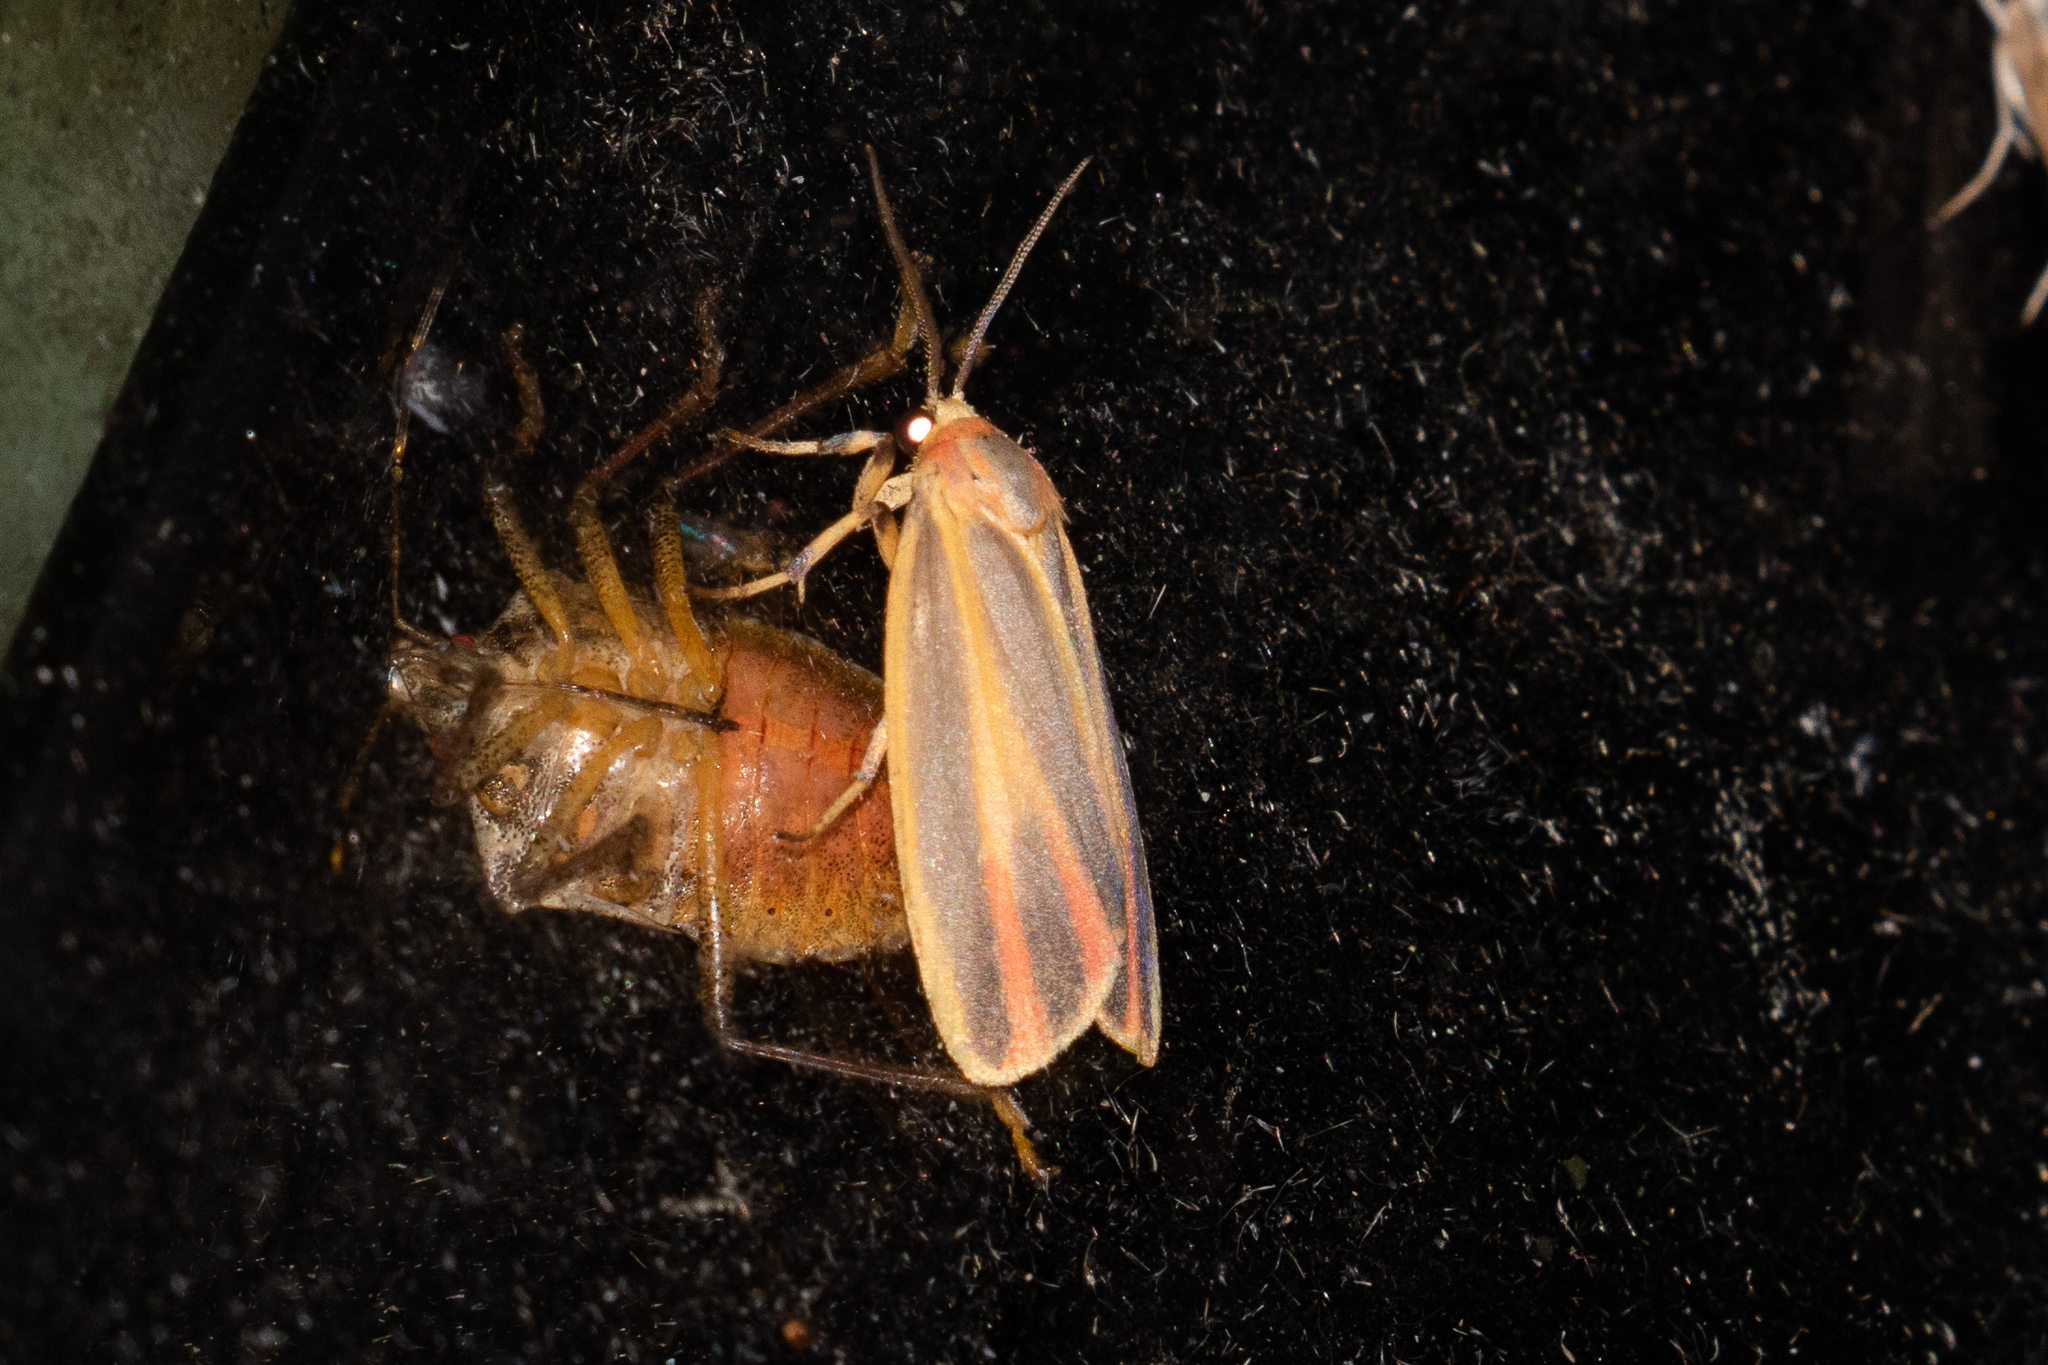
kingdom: Animalia
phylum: Arthropoda
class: Insecta
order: Lepidoptera
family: Erebidae
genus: Hypoprepia
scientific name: Hypoprepia fucosa
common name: Painted lichen moth
